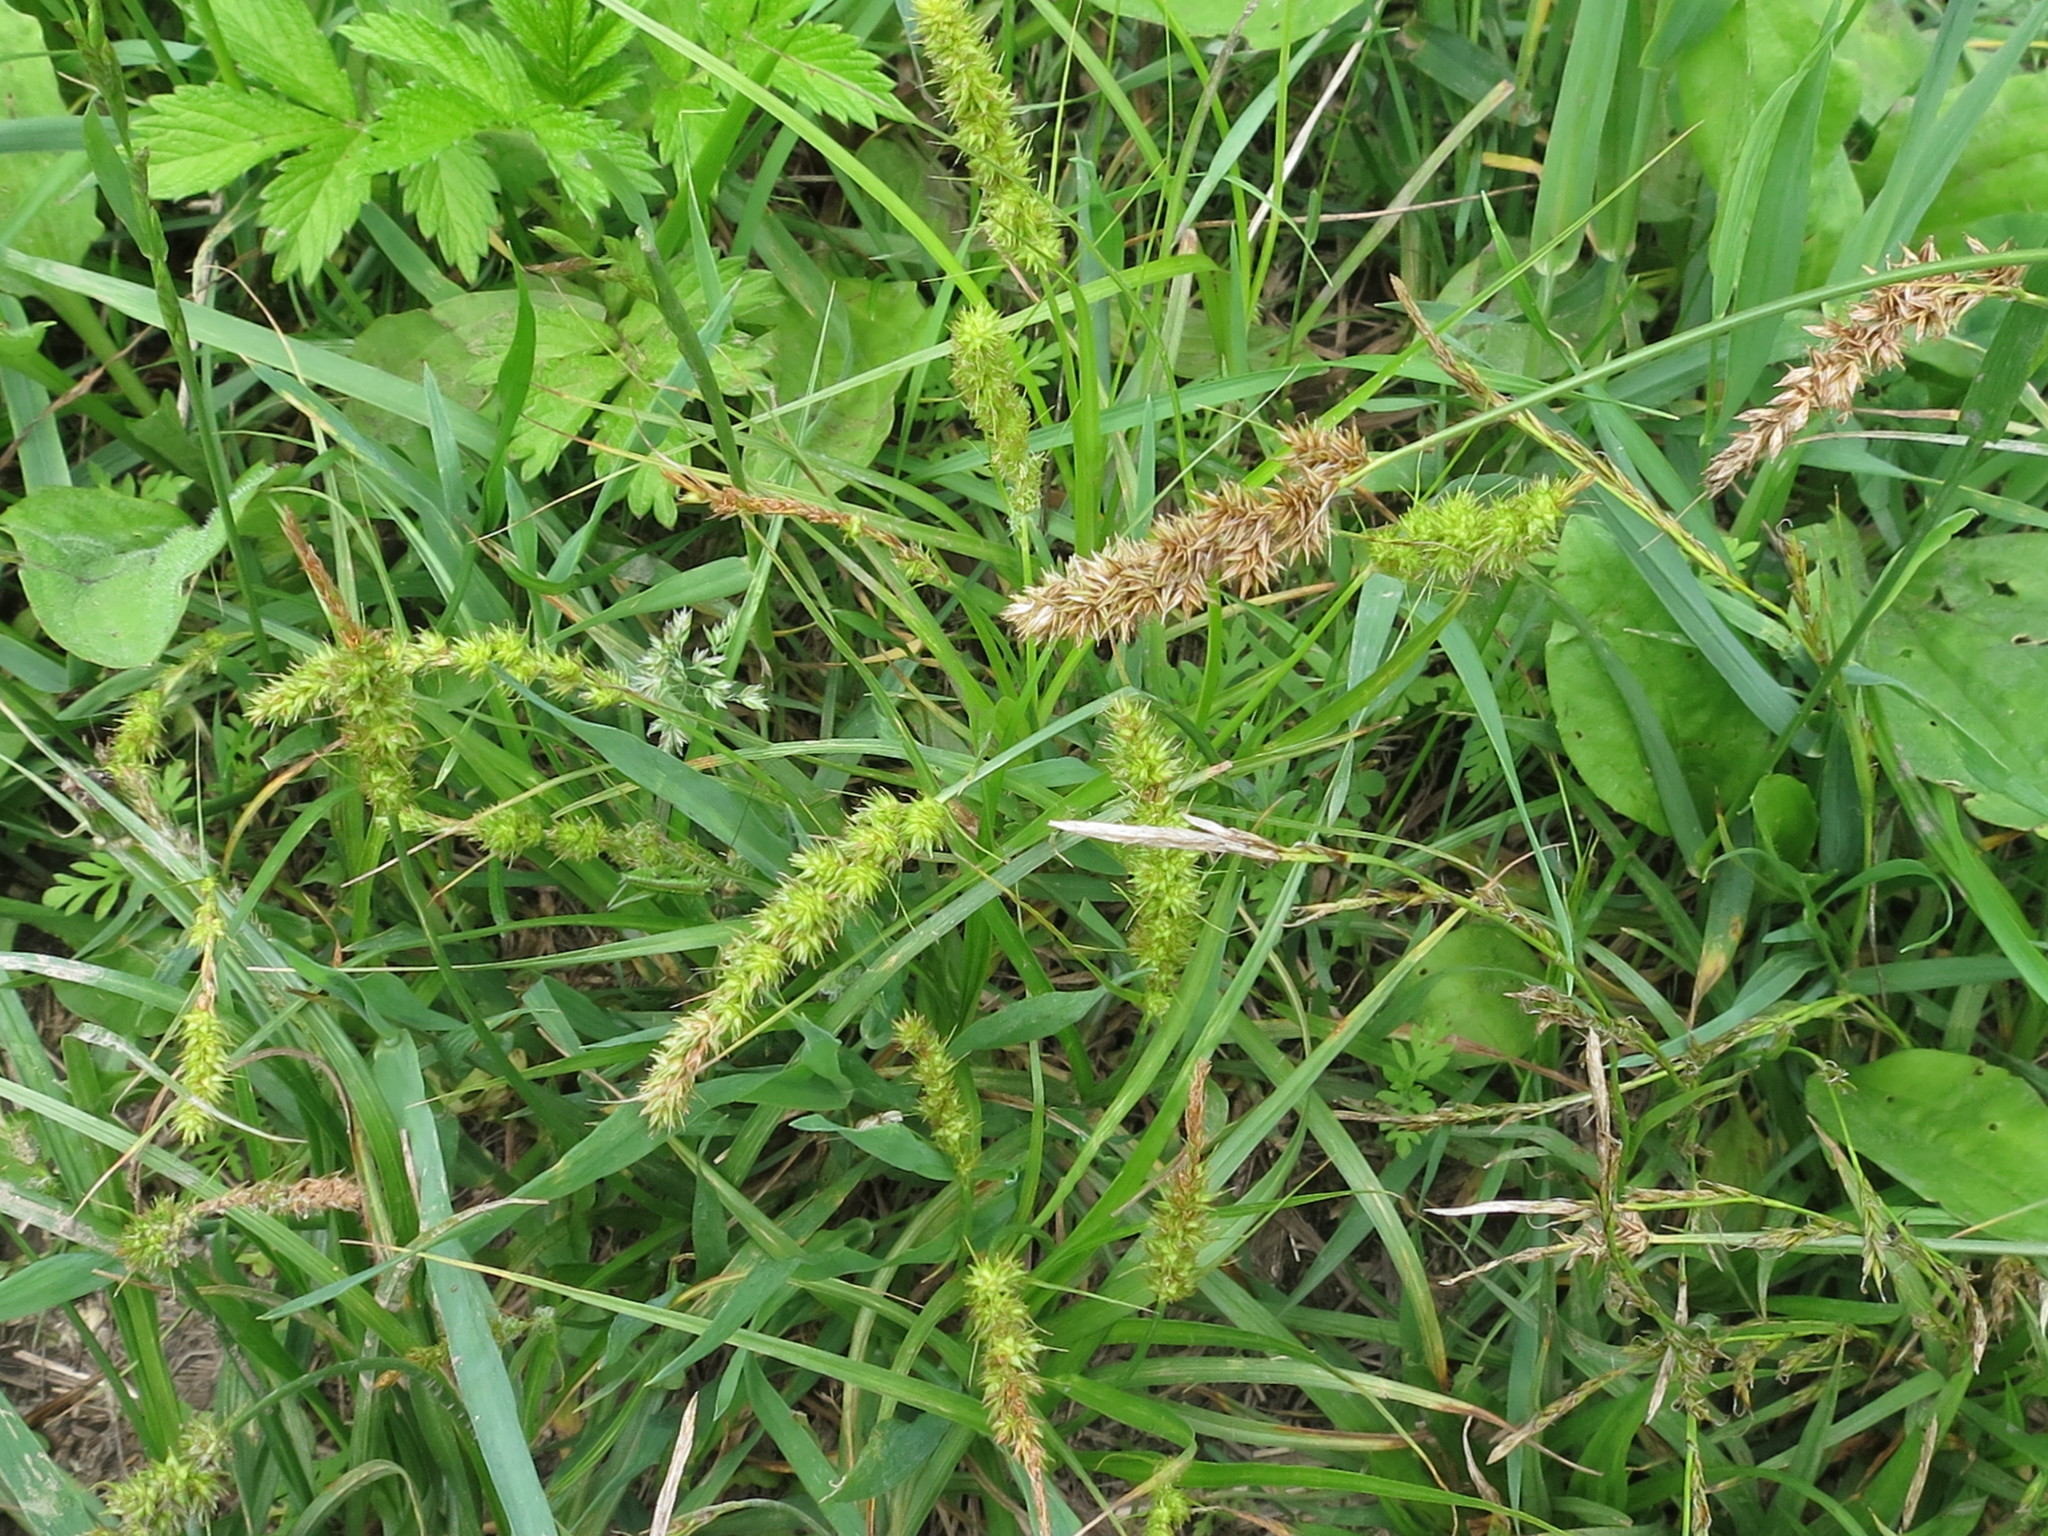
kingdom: Plantae
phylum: Tracheophyta
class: Liliopsida
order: Poales
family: Cyperaceae
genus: Carex
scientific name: Carex leiorhyncha
